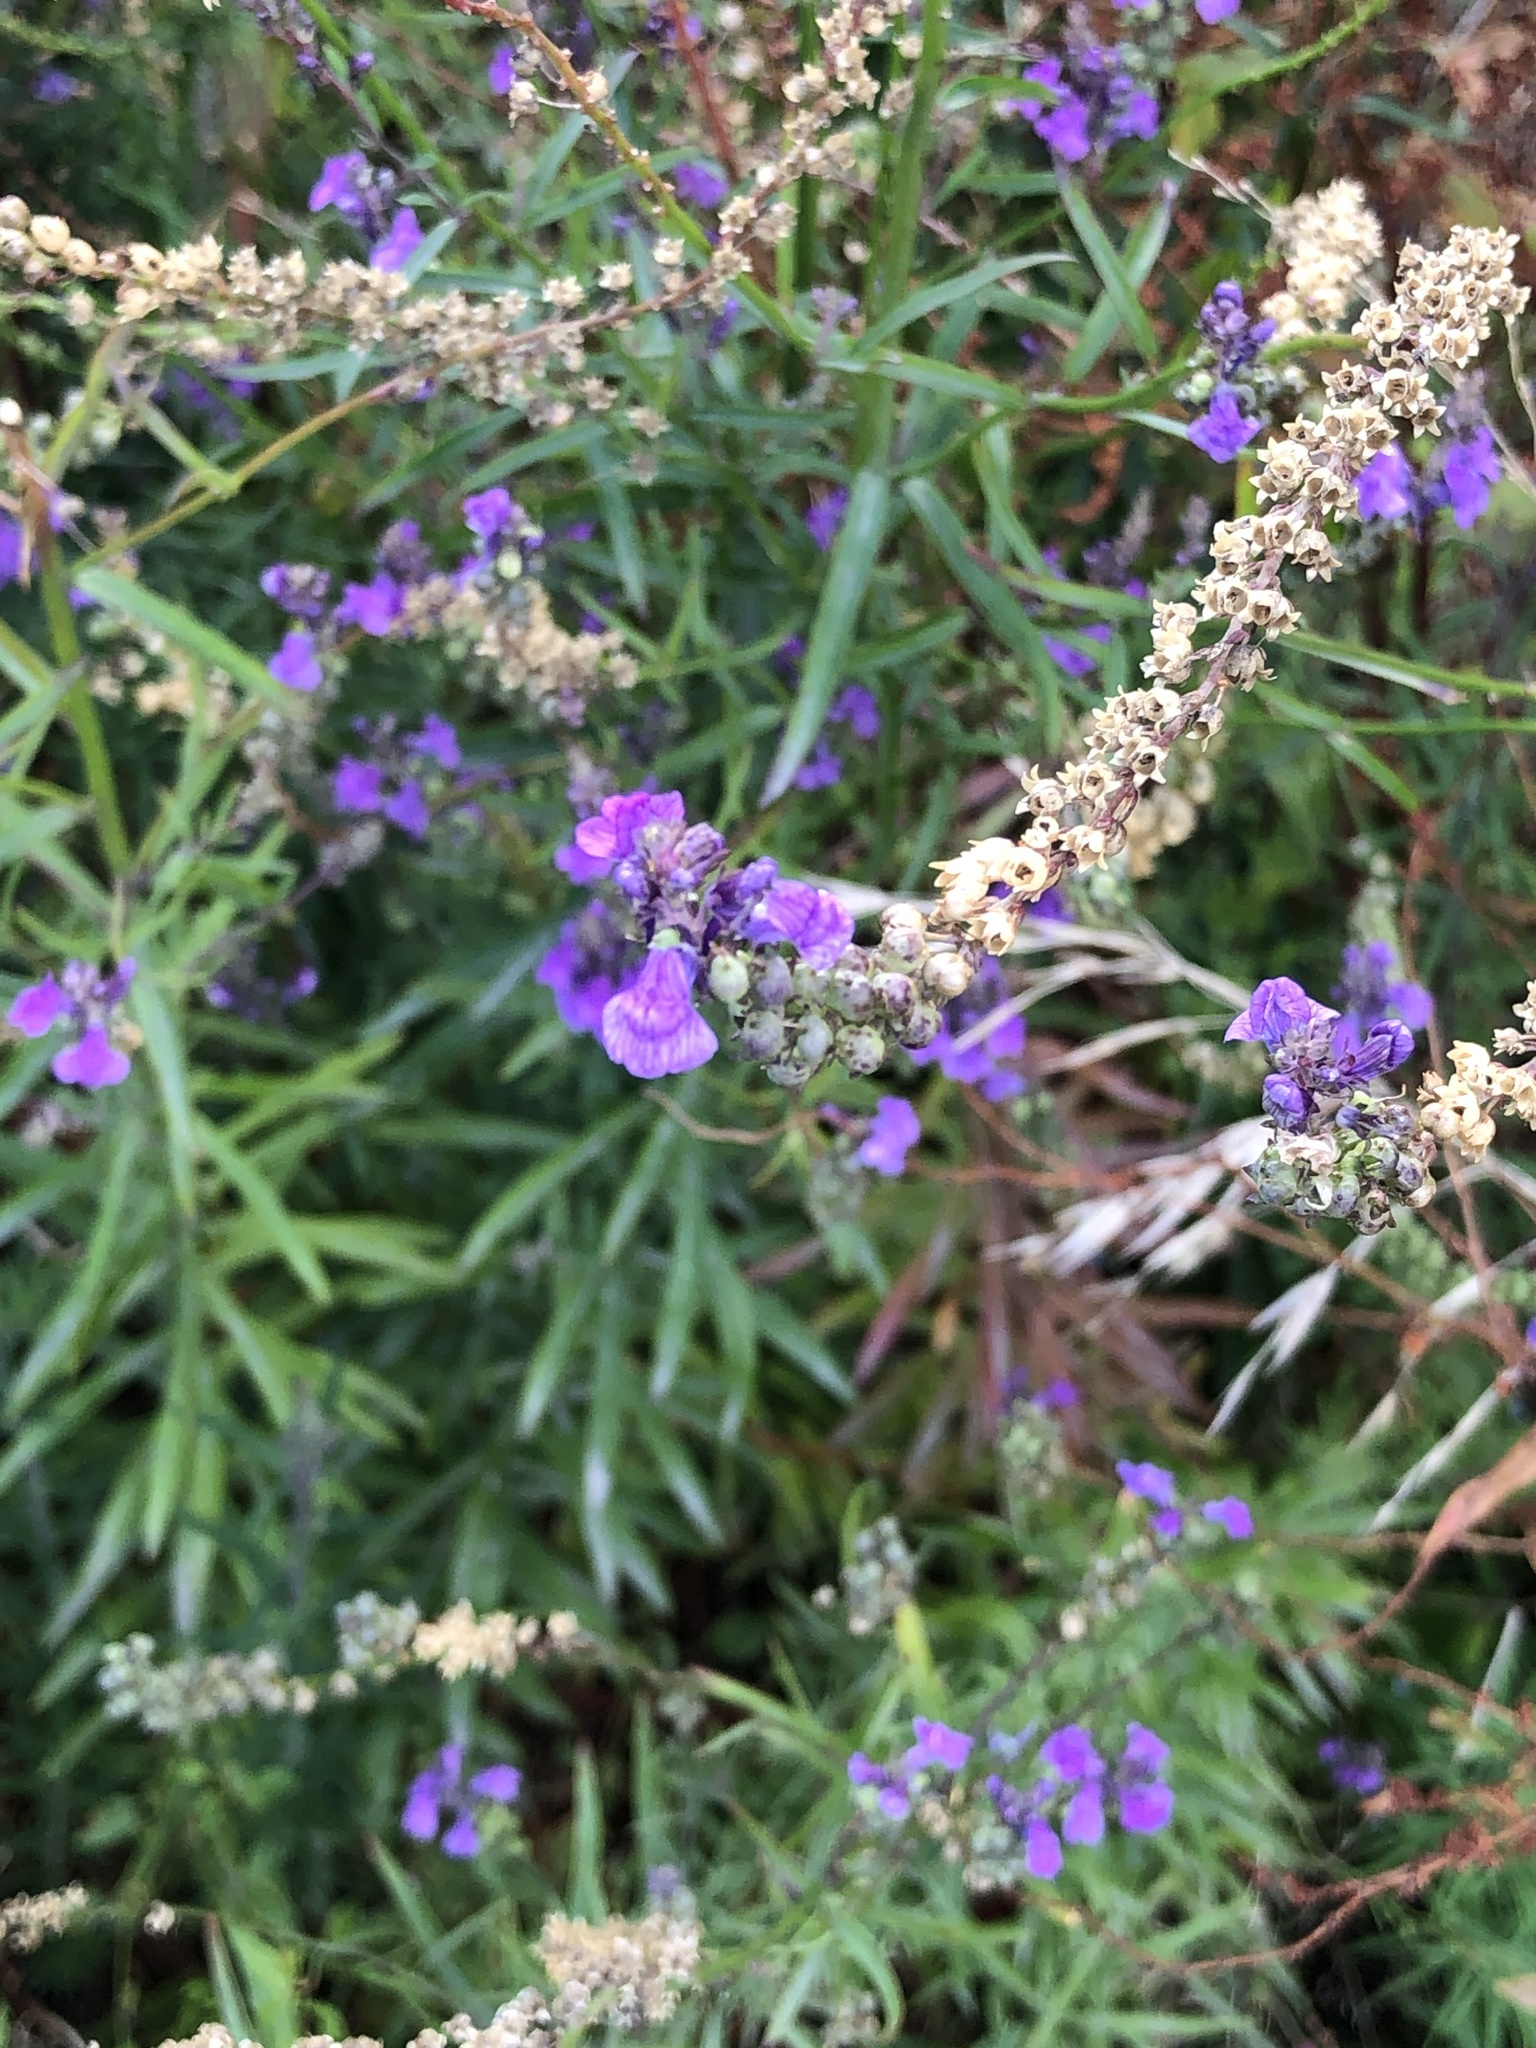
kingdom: Plantae
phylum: Tracheophyta
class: Magnoliopsida
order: Lamiales
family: Plantaginaceae
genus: Linaria
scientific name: Linaria purpurea
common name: Purple toadflax
